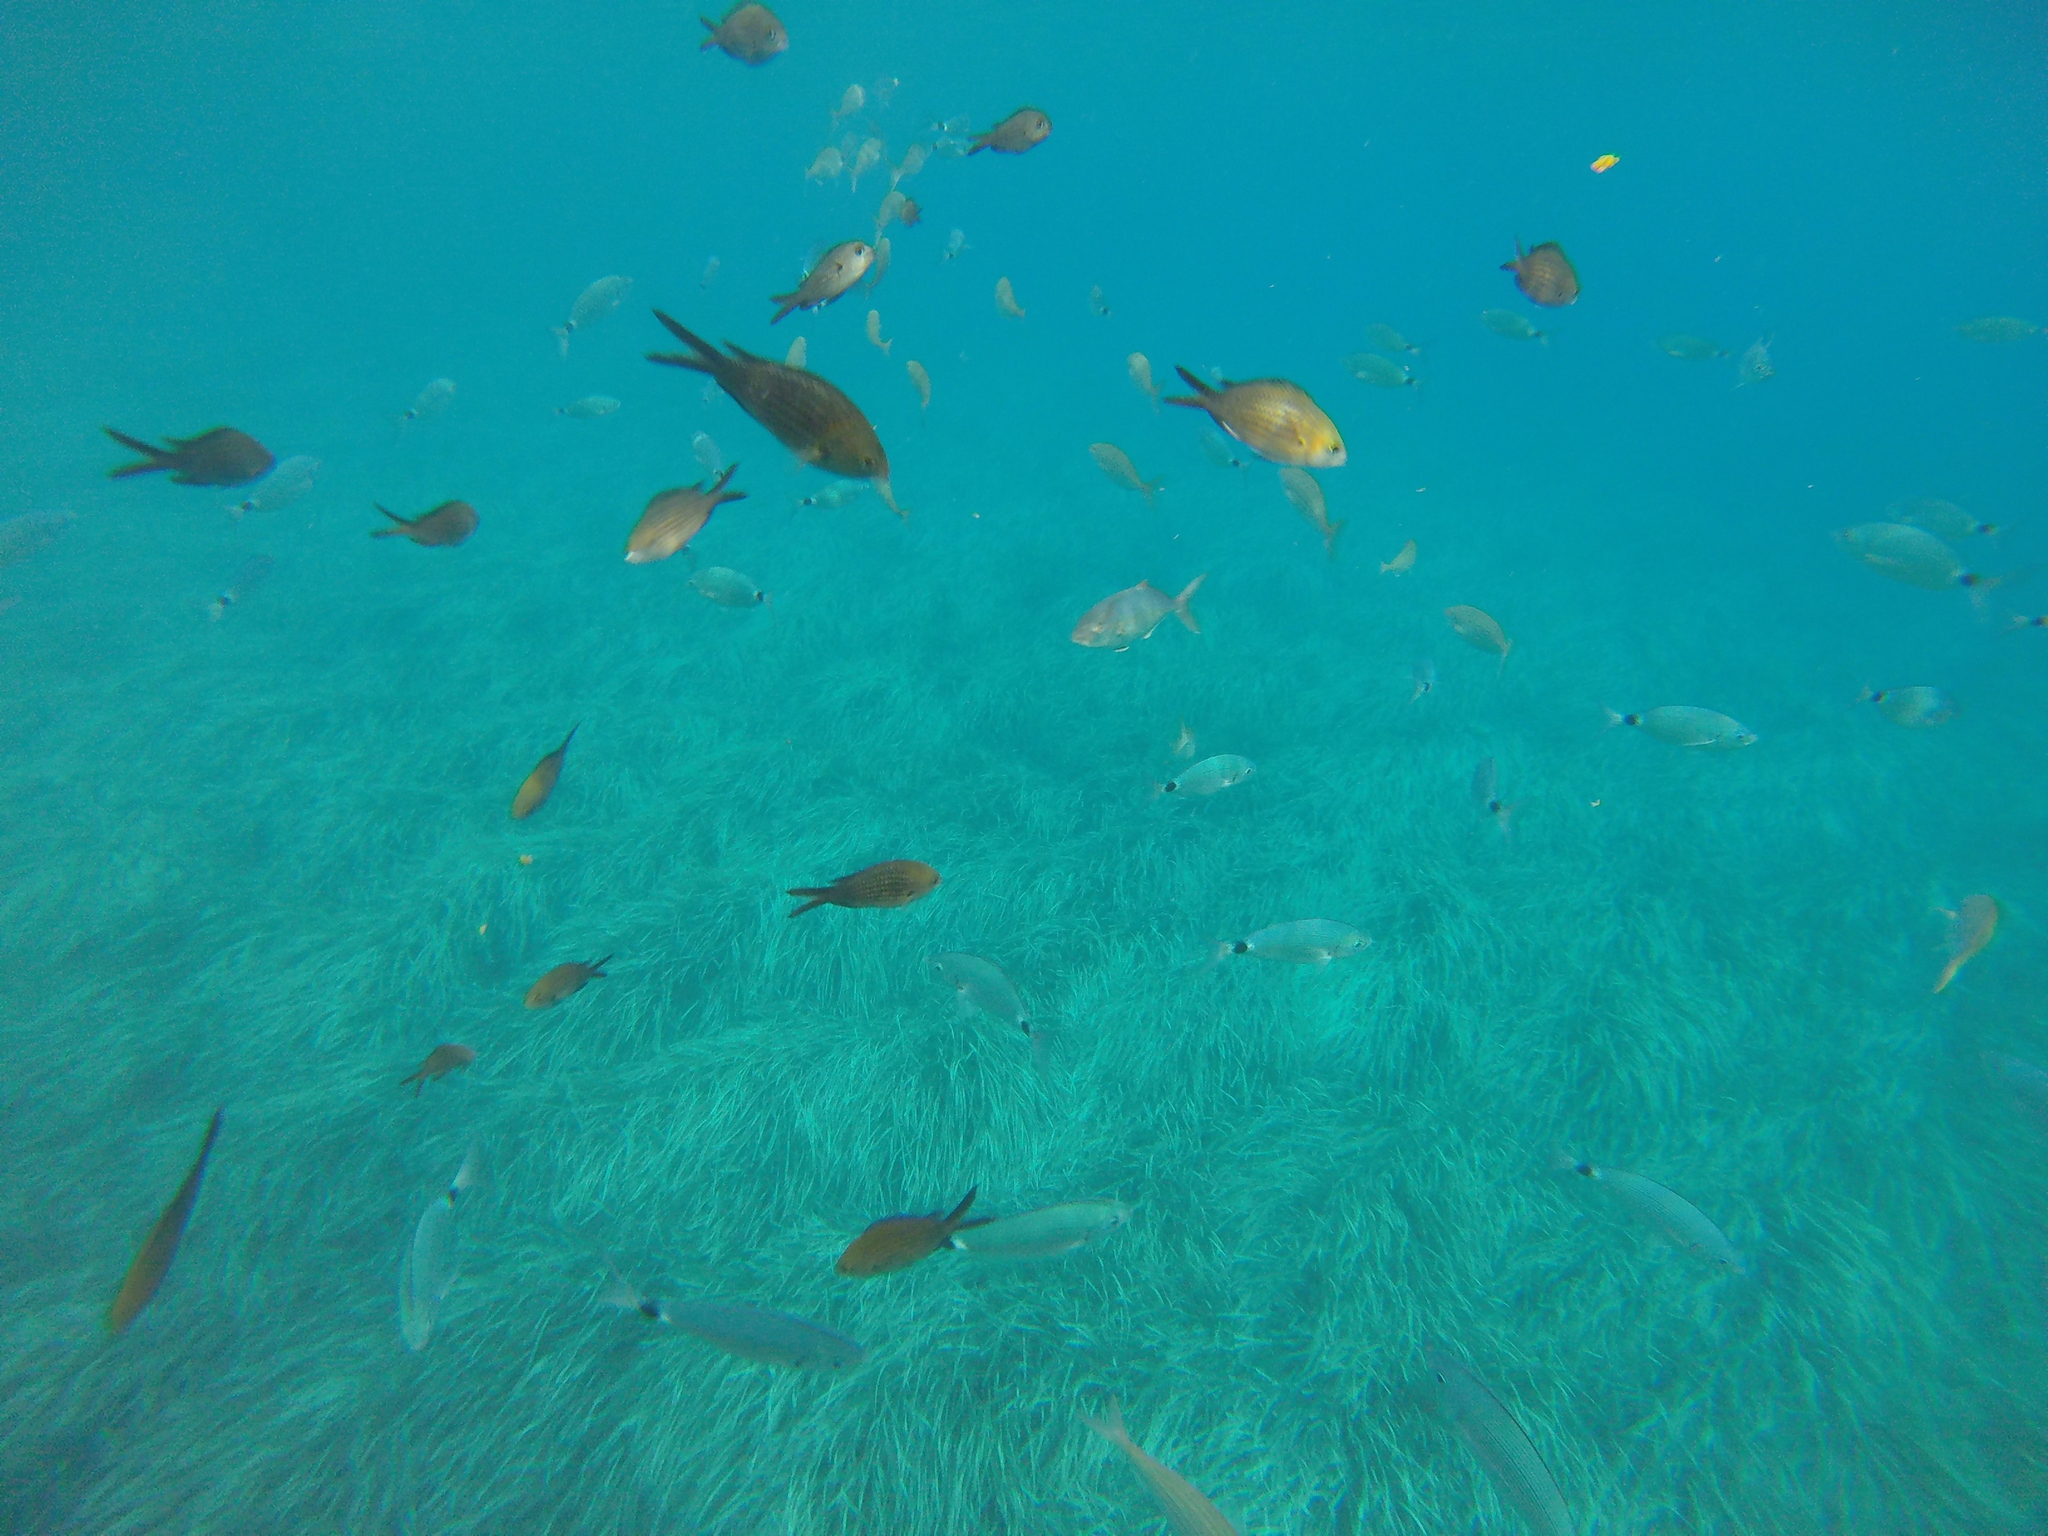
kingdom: Animalia
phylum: Chordata
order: Perciformes
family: Pomacentridae
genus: Chromis
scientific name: Chromis chromis
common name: Damselfish
